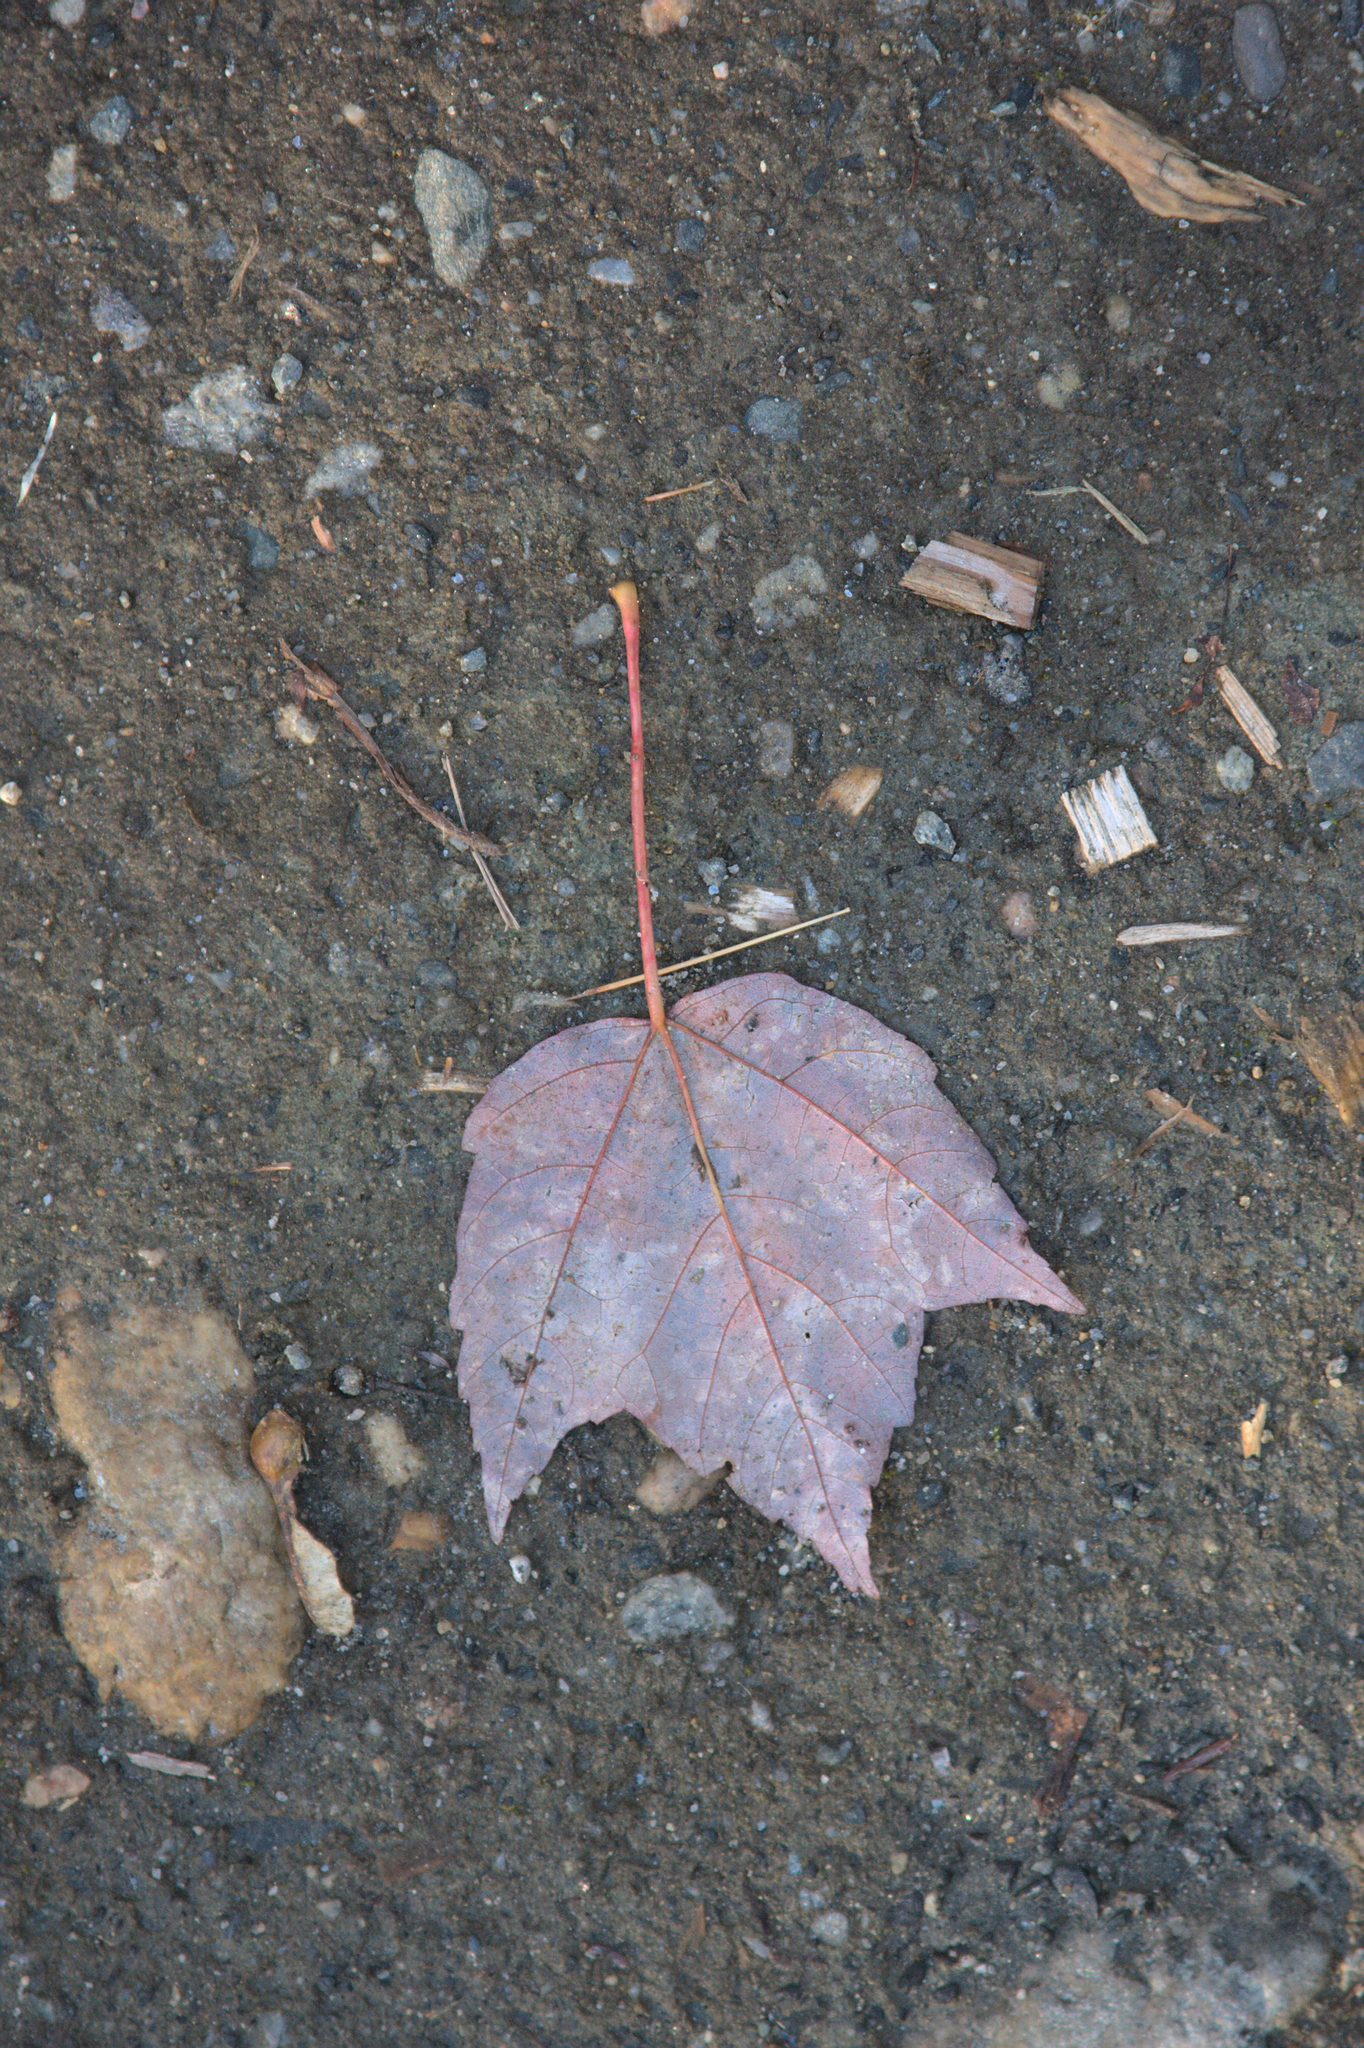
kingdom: Plantae
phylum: Tracheophyta
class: Magnoliopsida
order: Sapindales
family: Sapindaceae
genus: Acer
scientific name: Acer rubrum
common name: Red maple
